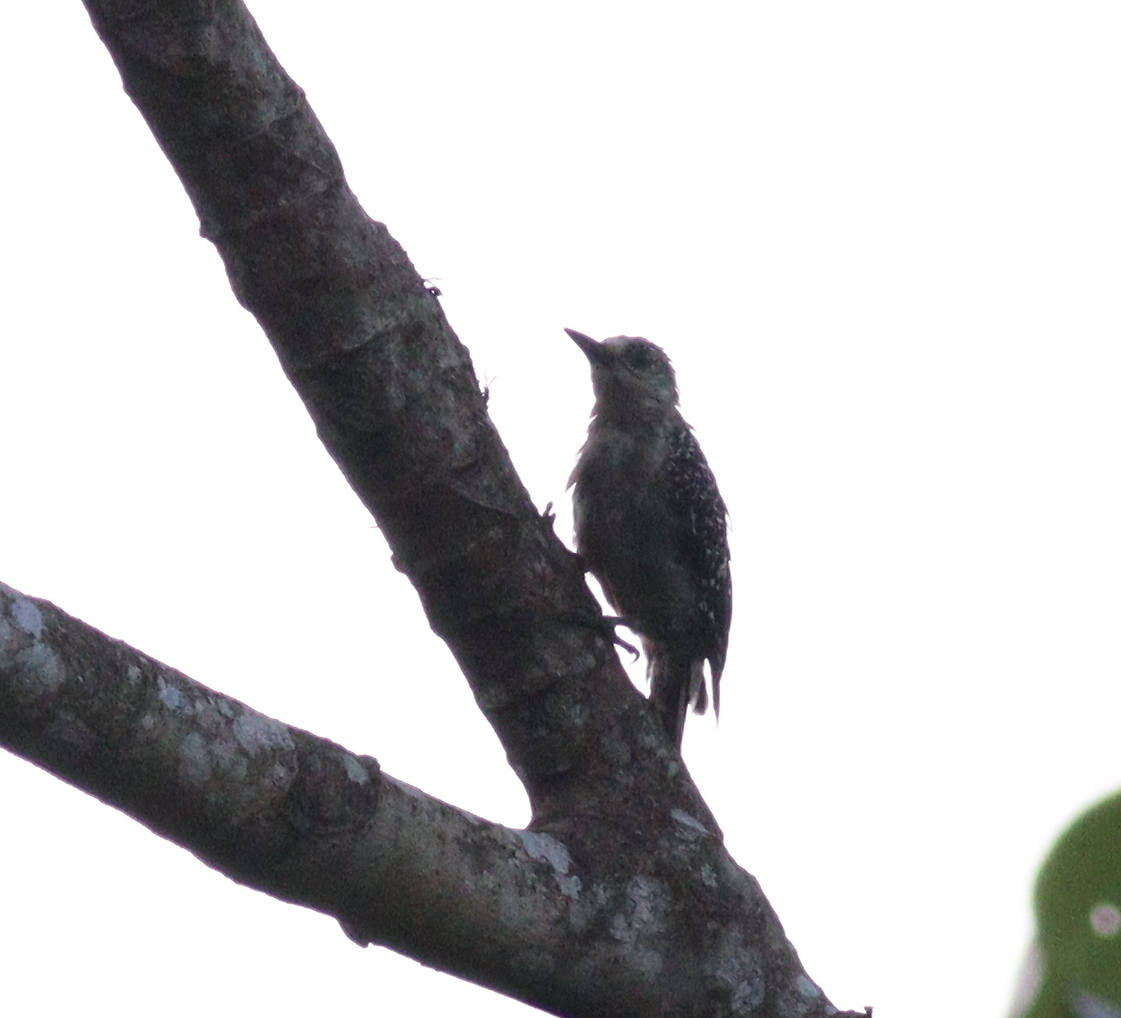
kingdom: Animalia
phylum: Chordata
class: Aves
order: Piciformes
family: Picidae
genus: Melanerpes
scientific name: Melanerpes rubricapillus
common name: Red-crowned woodpecker
